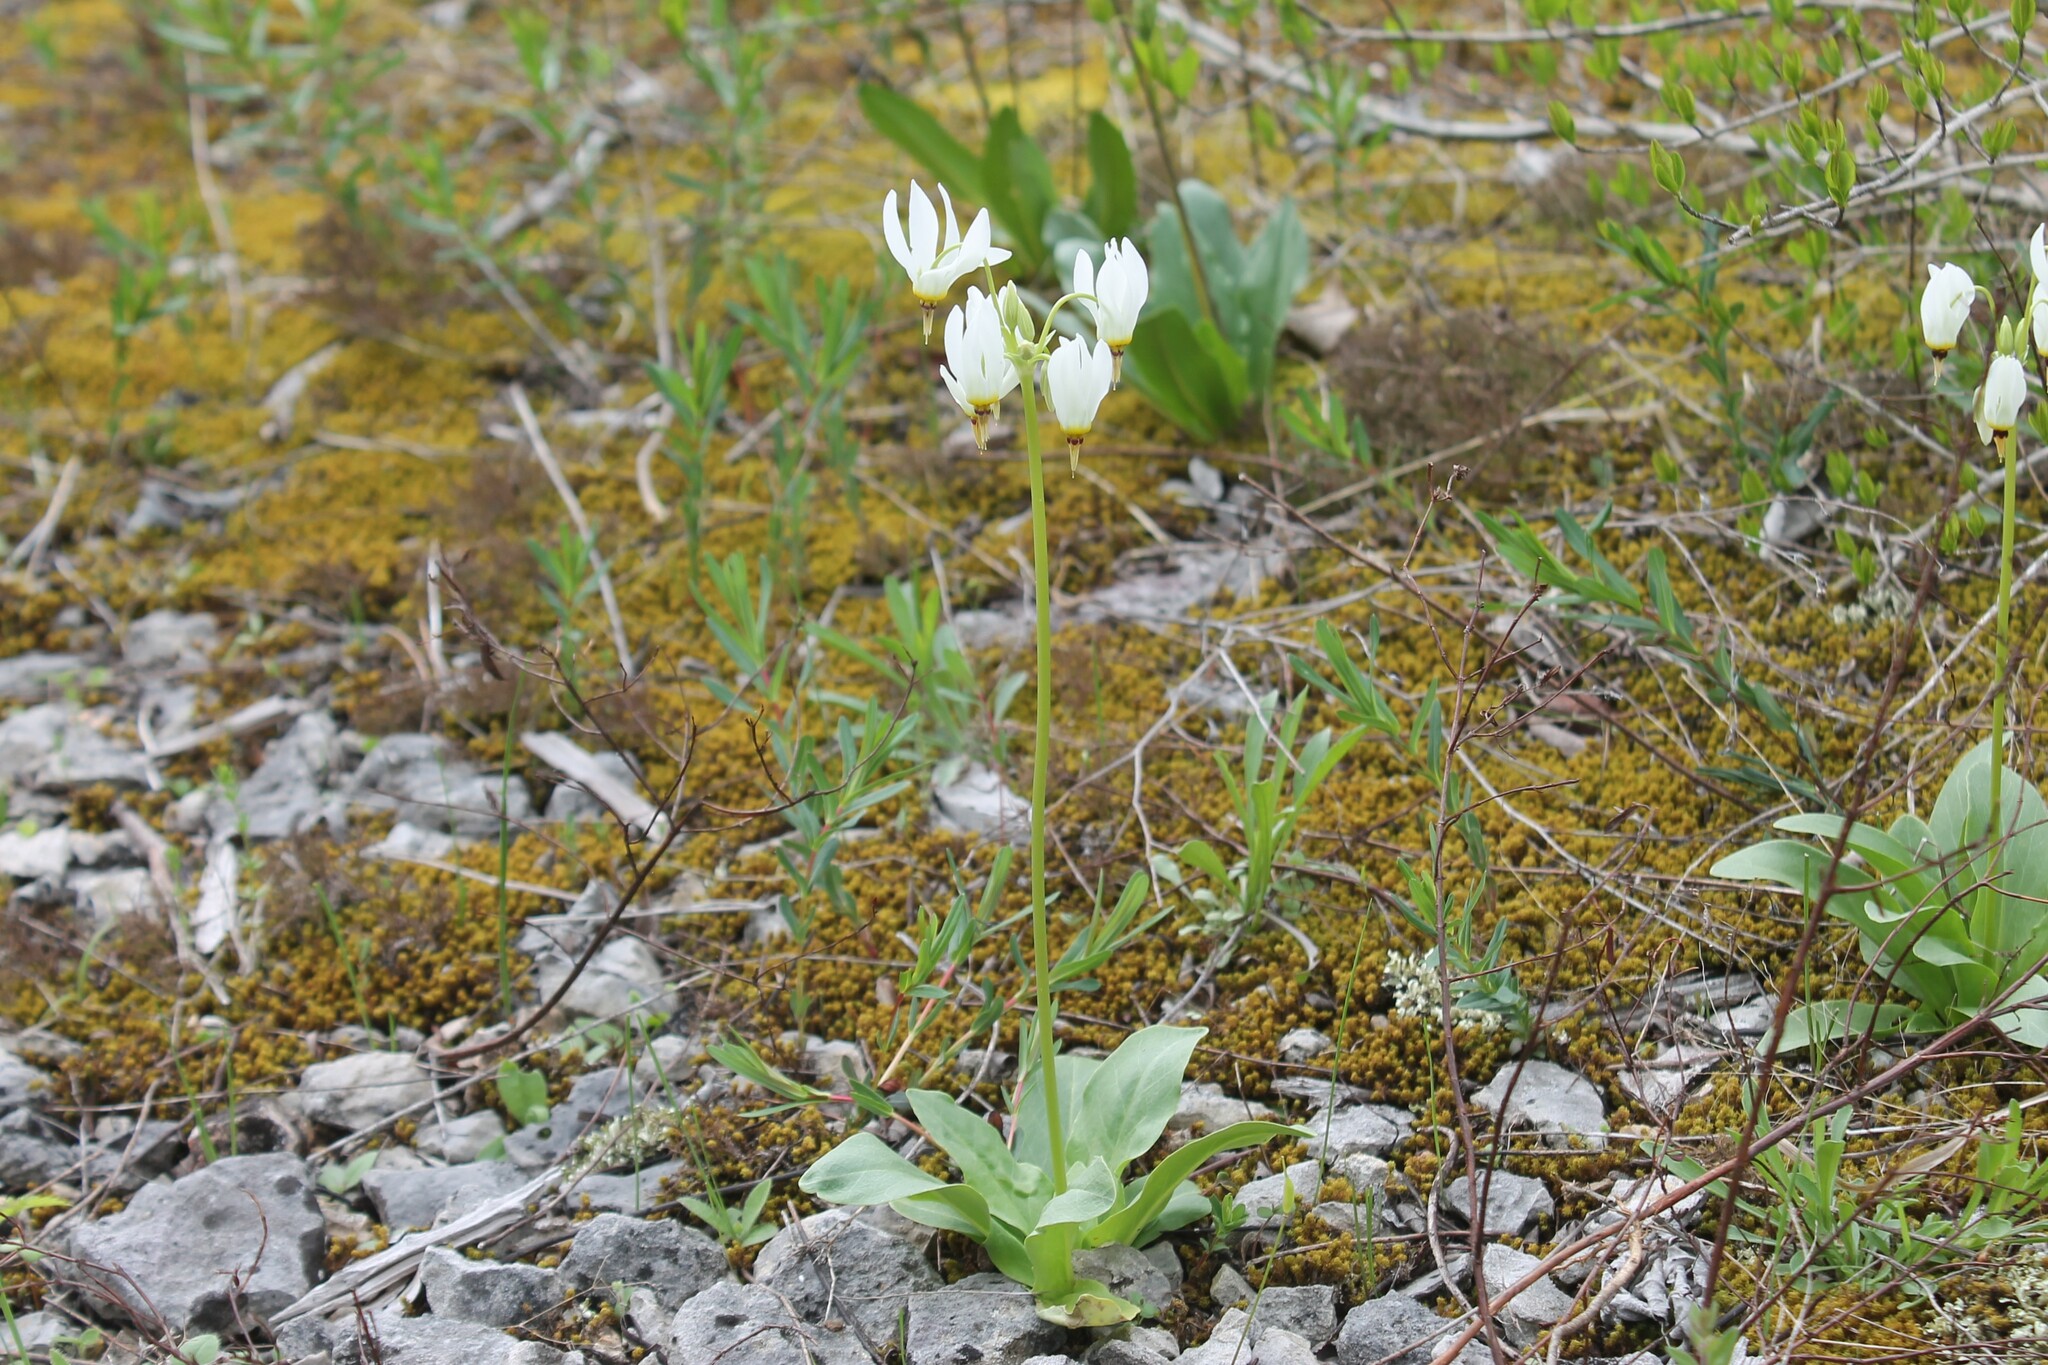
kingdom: Plantae
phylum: Tracheophyta
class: Magnoliopsida
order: Ericales
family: Primulaceae
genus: Dodecatheon
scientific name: Dodecatheon meadia
